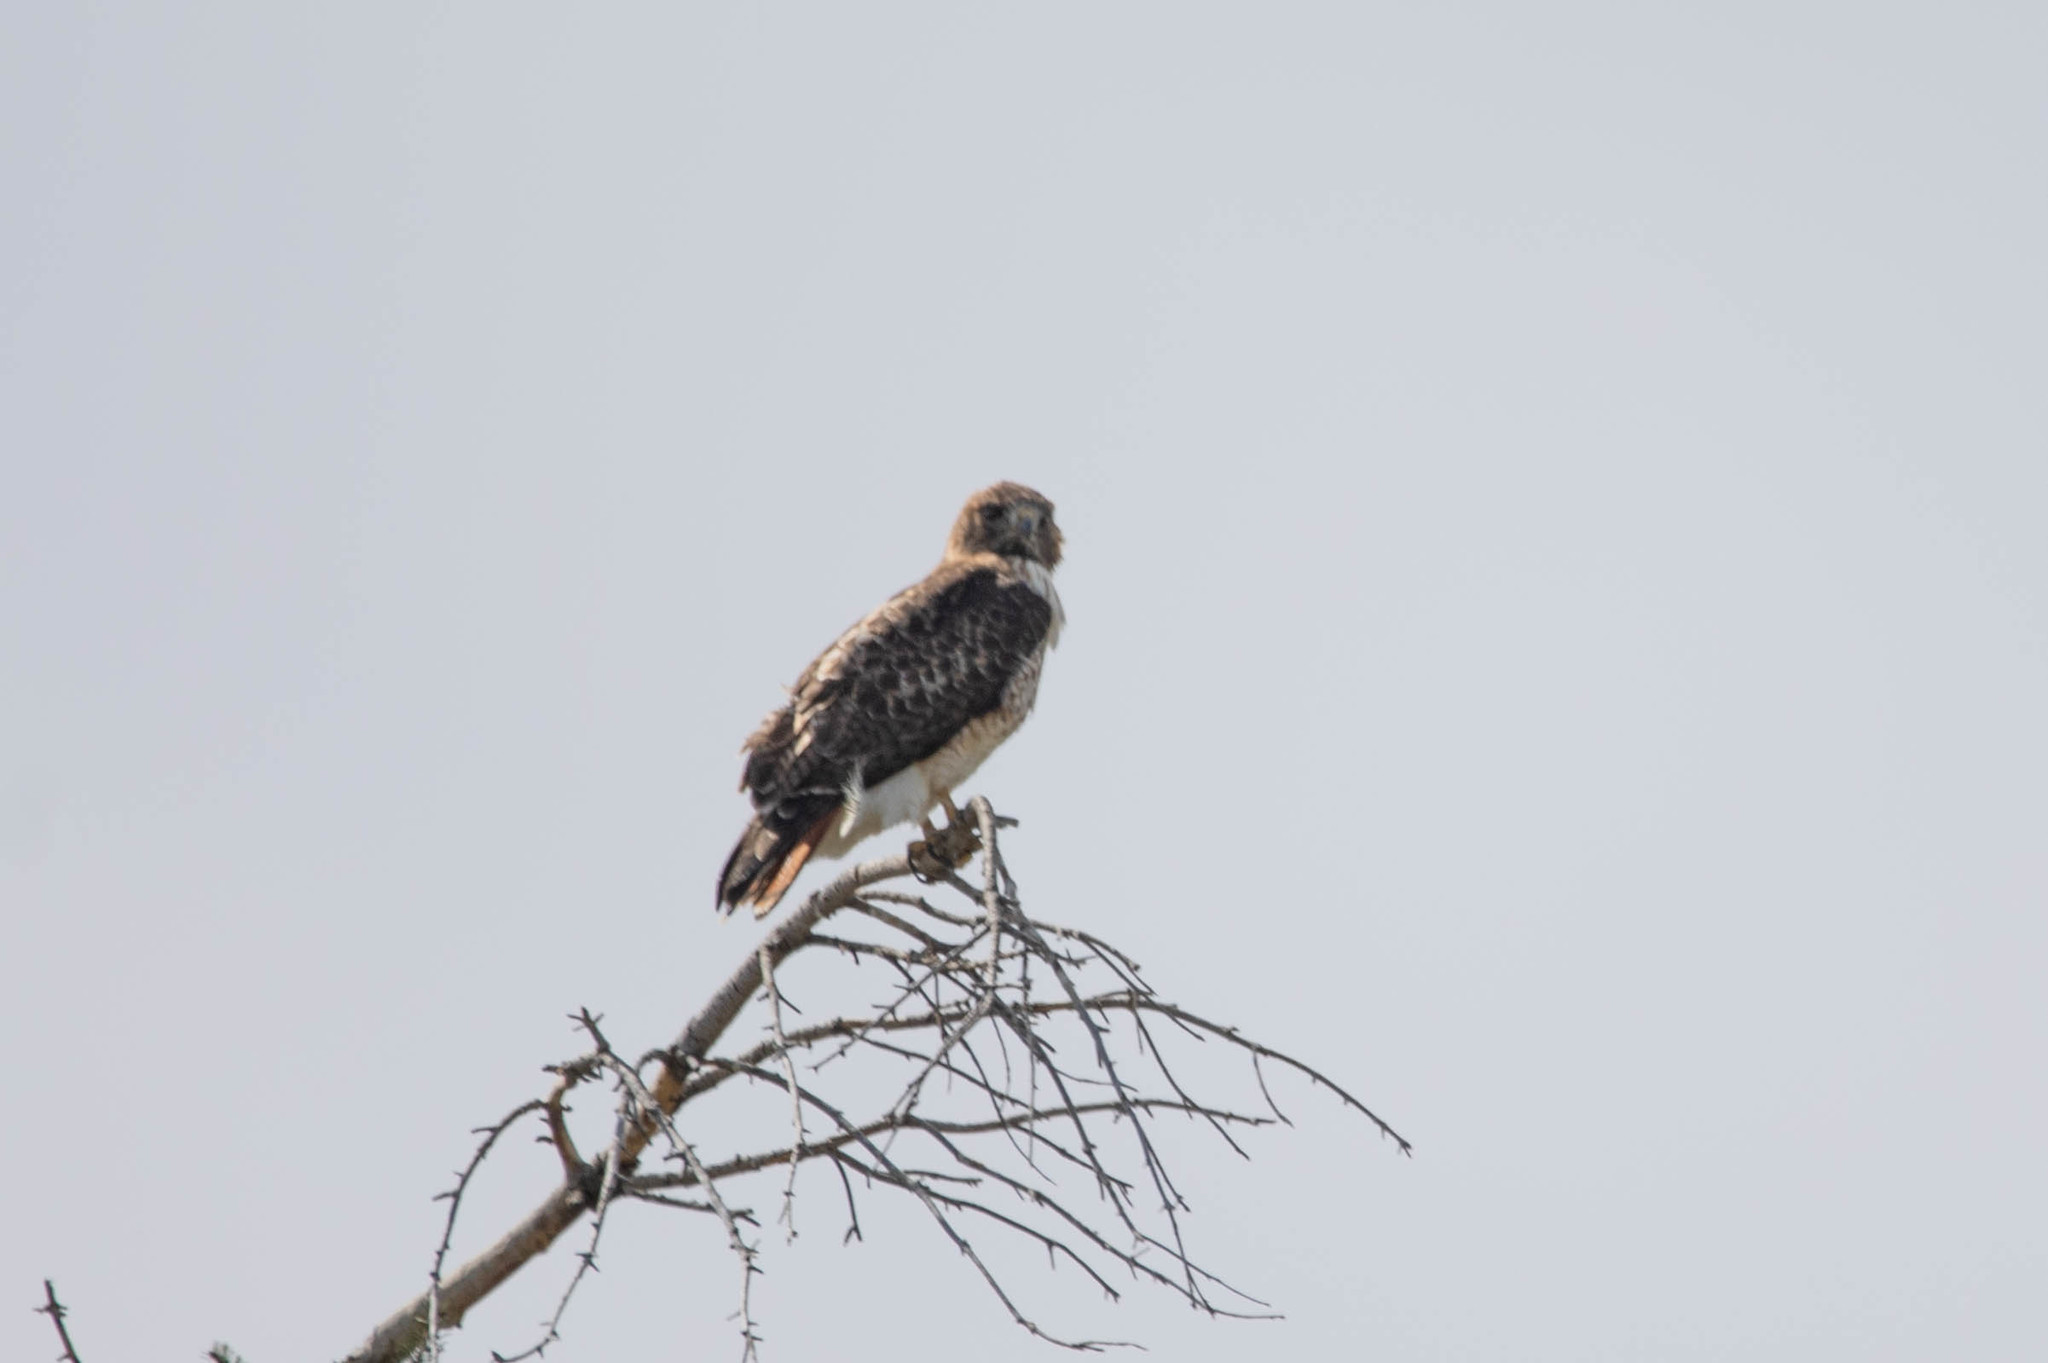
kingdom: Animalia
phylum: Chordata
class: Aves
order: Accipitriformes
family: Accipitridae
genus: Buteo
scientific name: Buteo jamaicensis
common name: Red-tailed hawk
